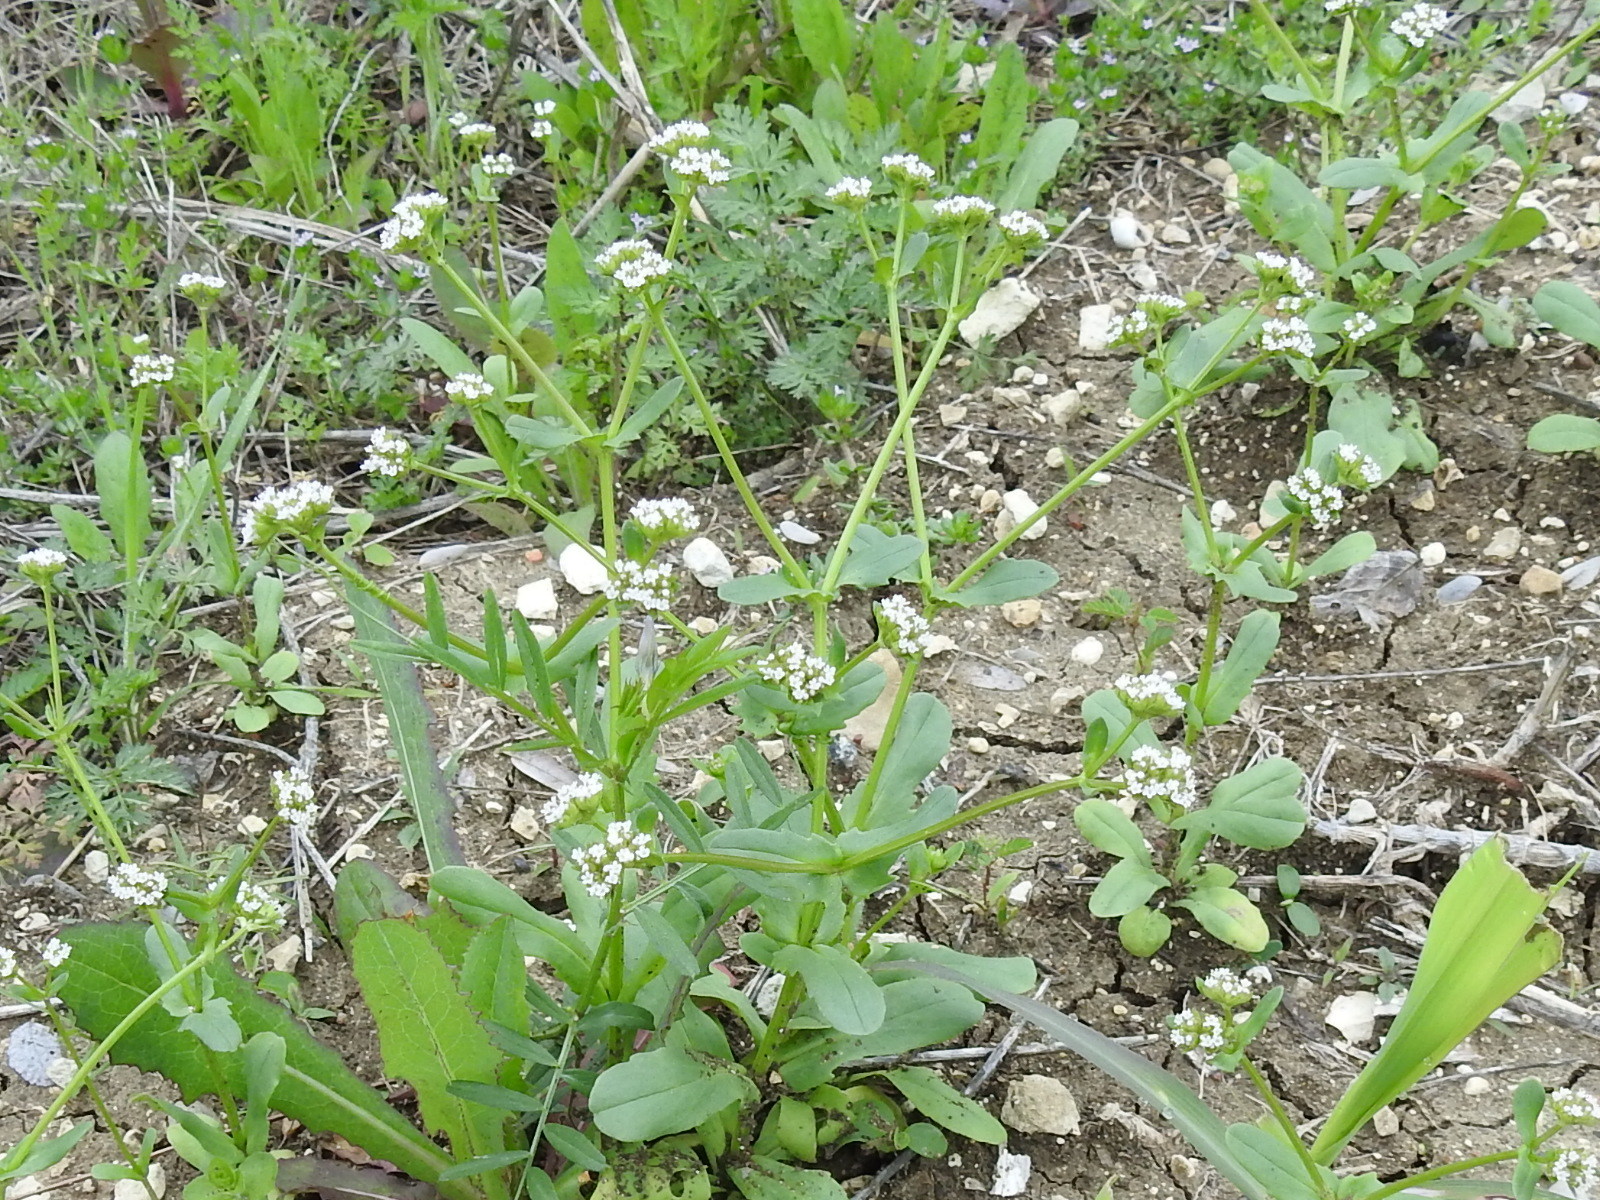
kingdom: Plantae
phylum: Tracheophyta
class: Magnoliopsida
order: Dipsacales
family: Caprifoliaceae
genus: Valerianella
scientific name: Valerianella radiata
